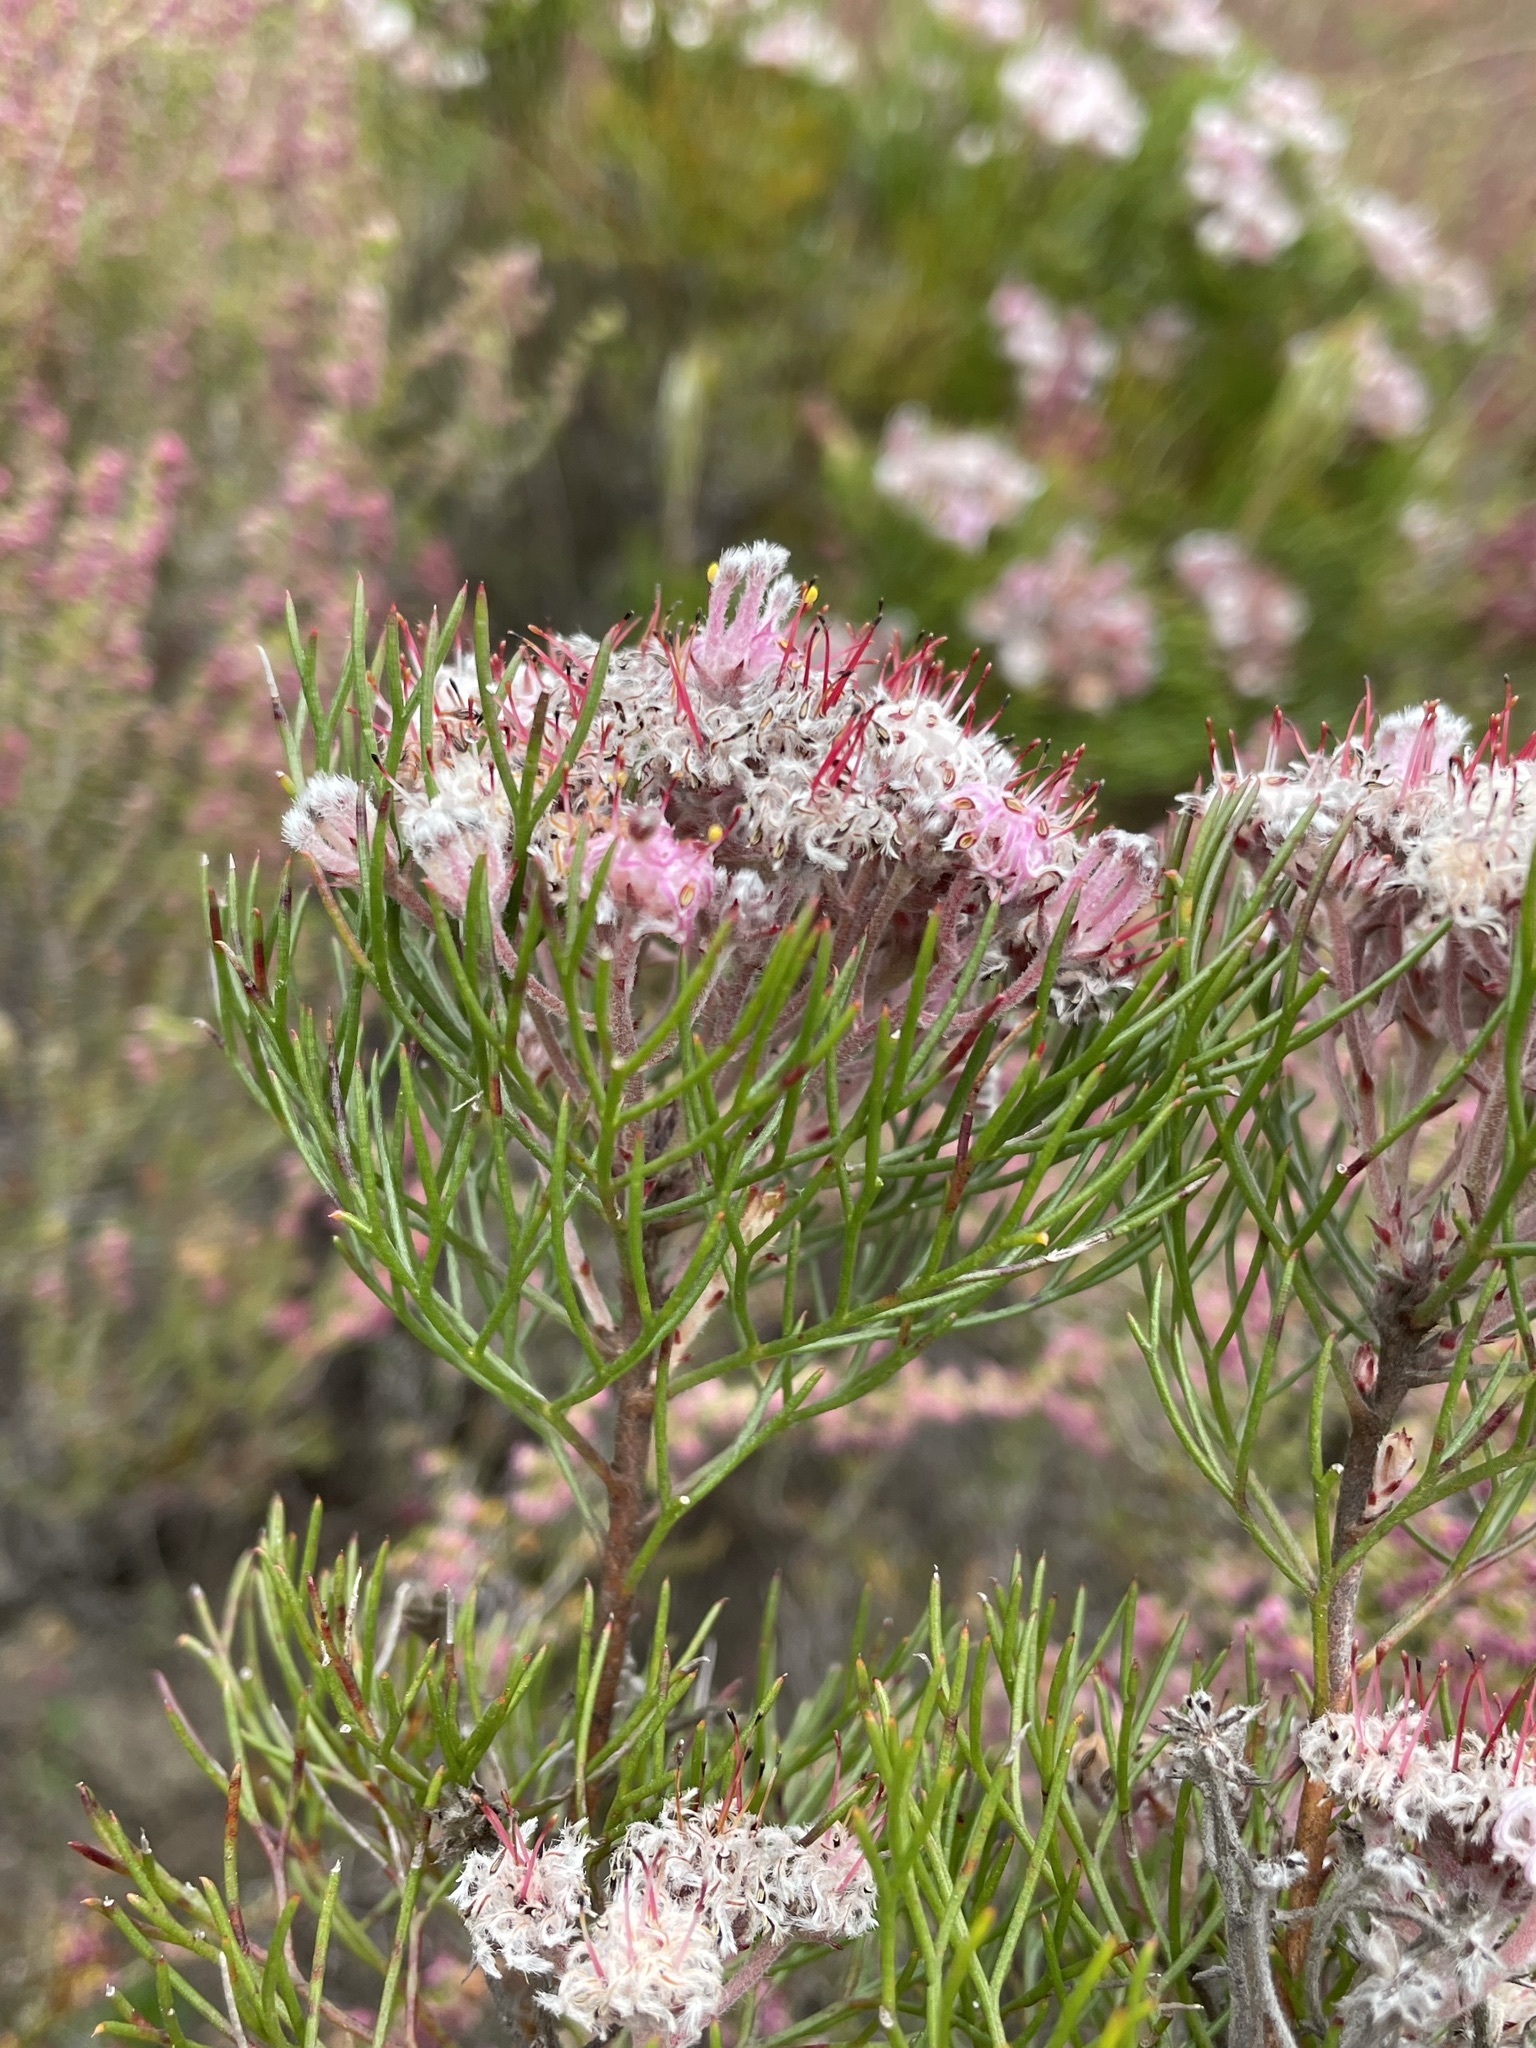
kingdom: Plantae
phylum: Tracheophyta
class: Magnoliopsida
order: Proteales
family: Proteaceae
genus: Serruria
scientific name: Serruria fasciflora
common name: Common pin spiderhead
